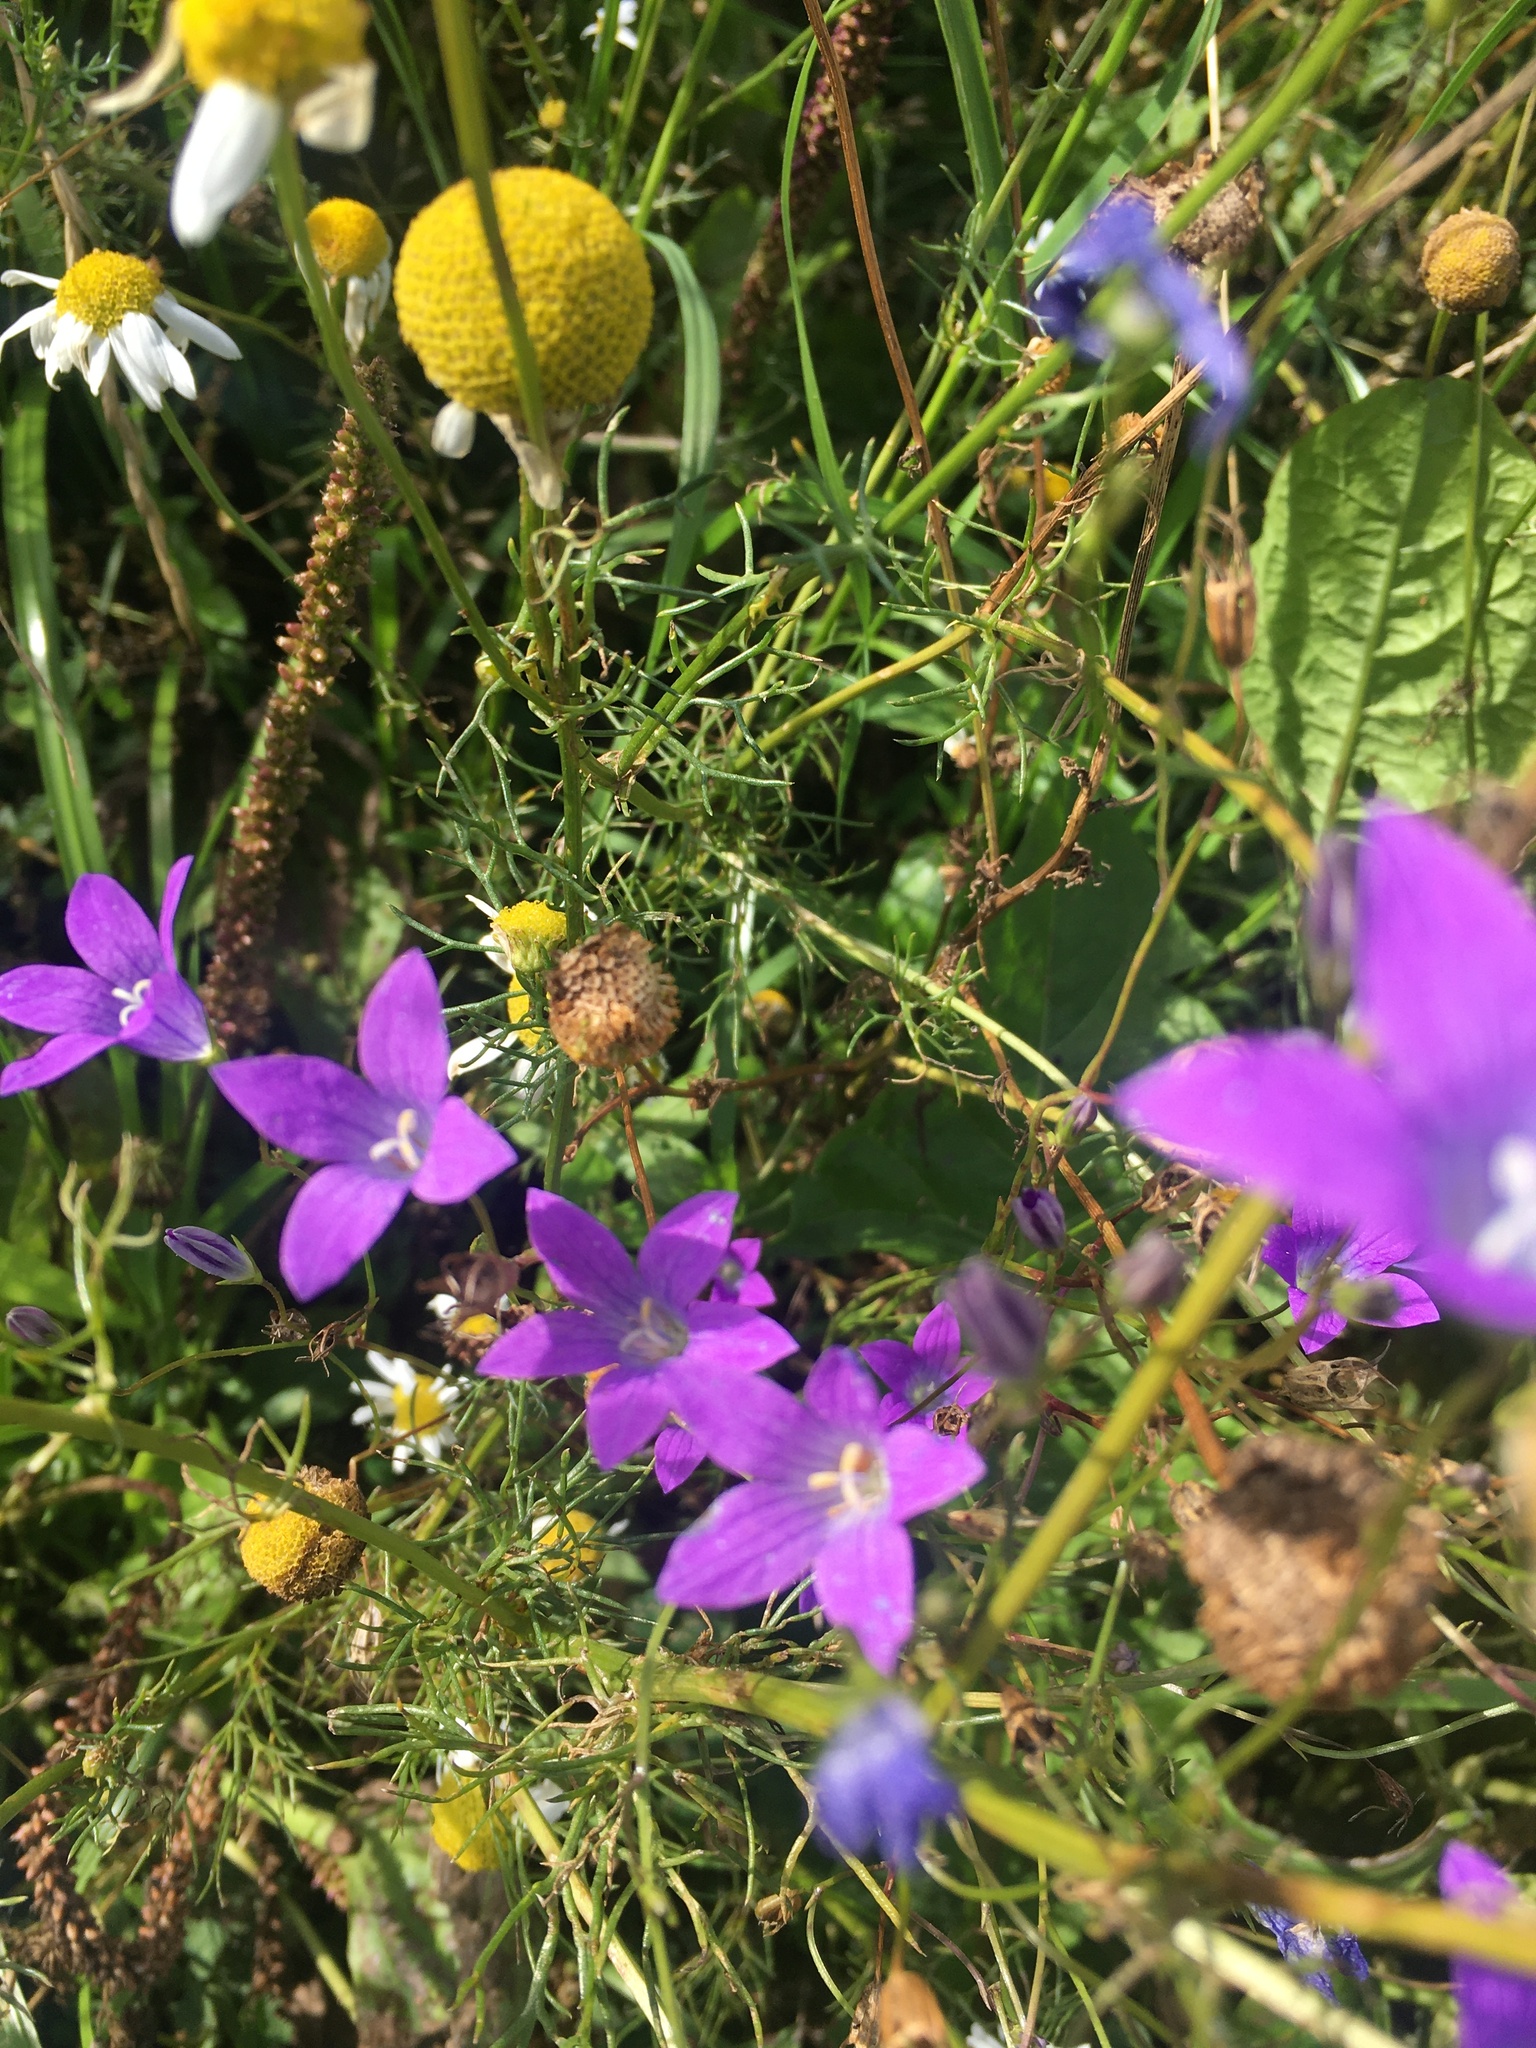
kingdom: Plantae
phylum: Tracheophyta
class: Magnoliopsida
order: Asterales
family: Campanulaceae
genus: Campanula
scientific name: Campanula patula
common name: Spreading bellflower
